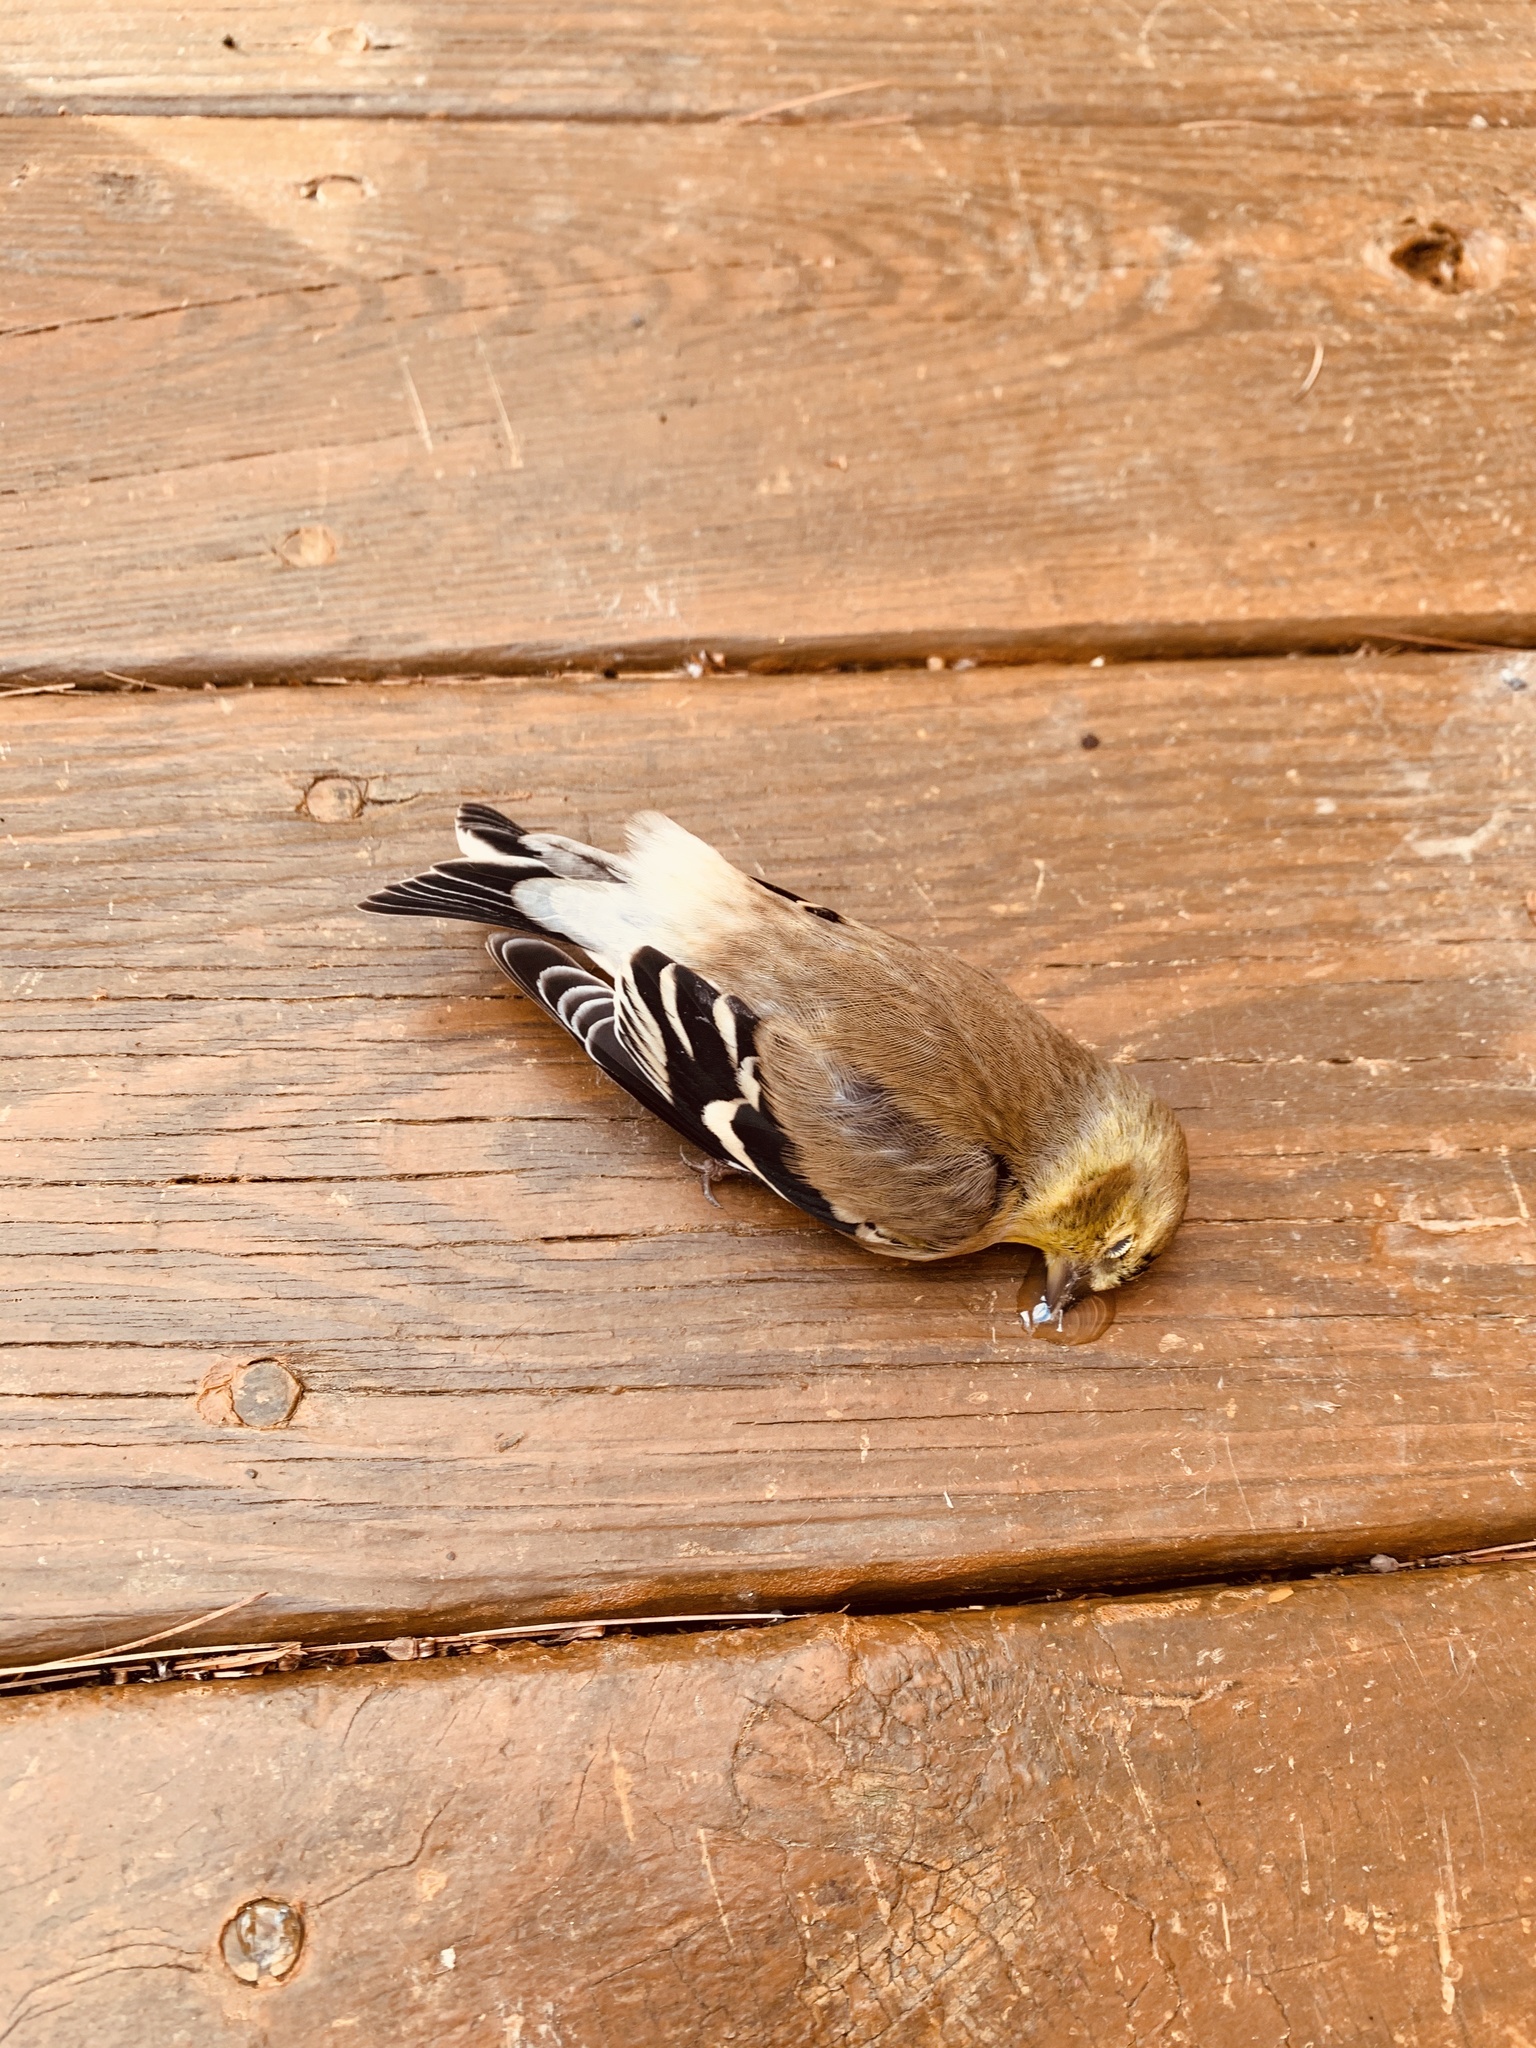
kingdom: Animalia
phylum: Chordata
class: Aves
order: Passeriformes
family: Fringillidae
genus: Spinus
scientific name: Spinus tristis
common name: American goldfinch
